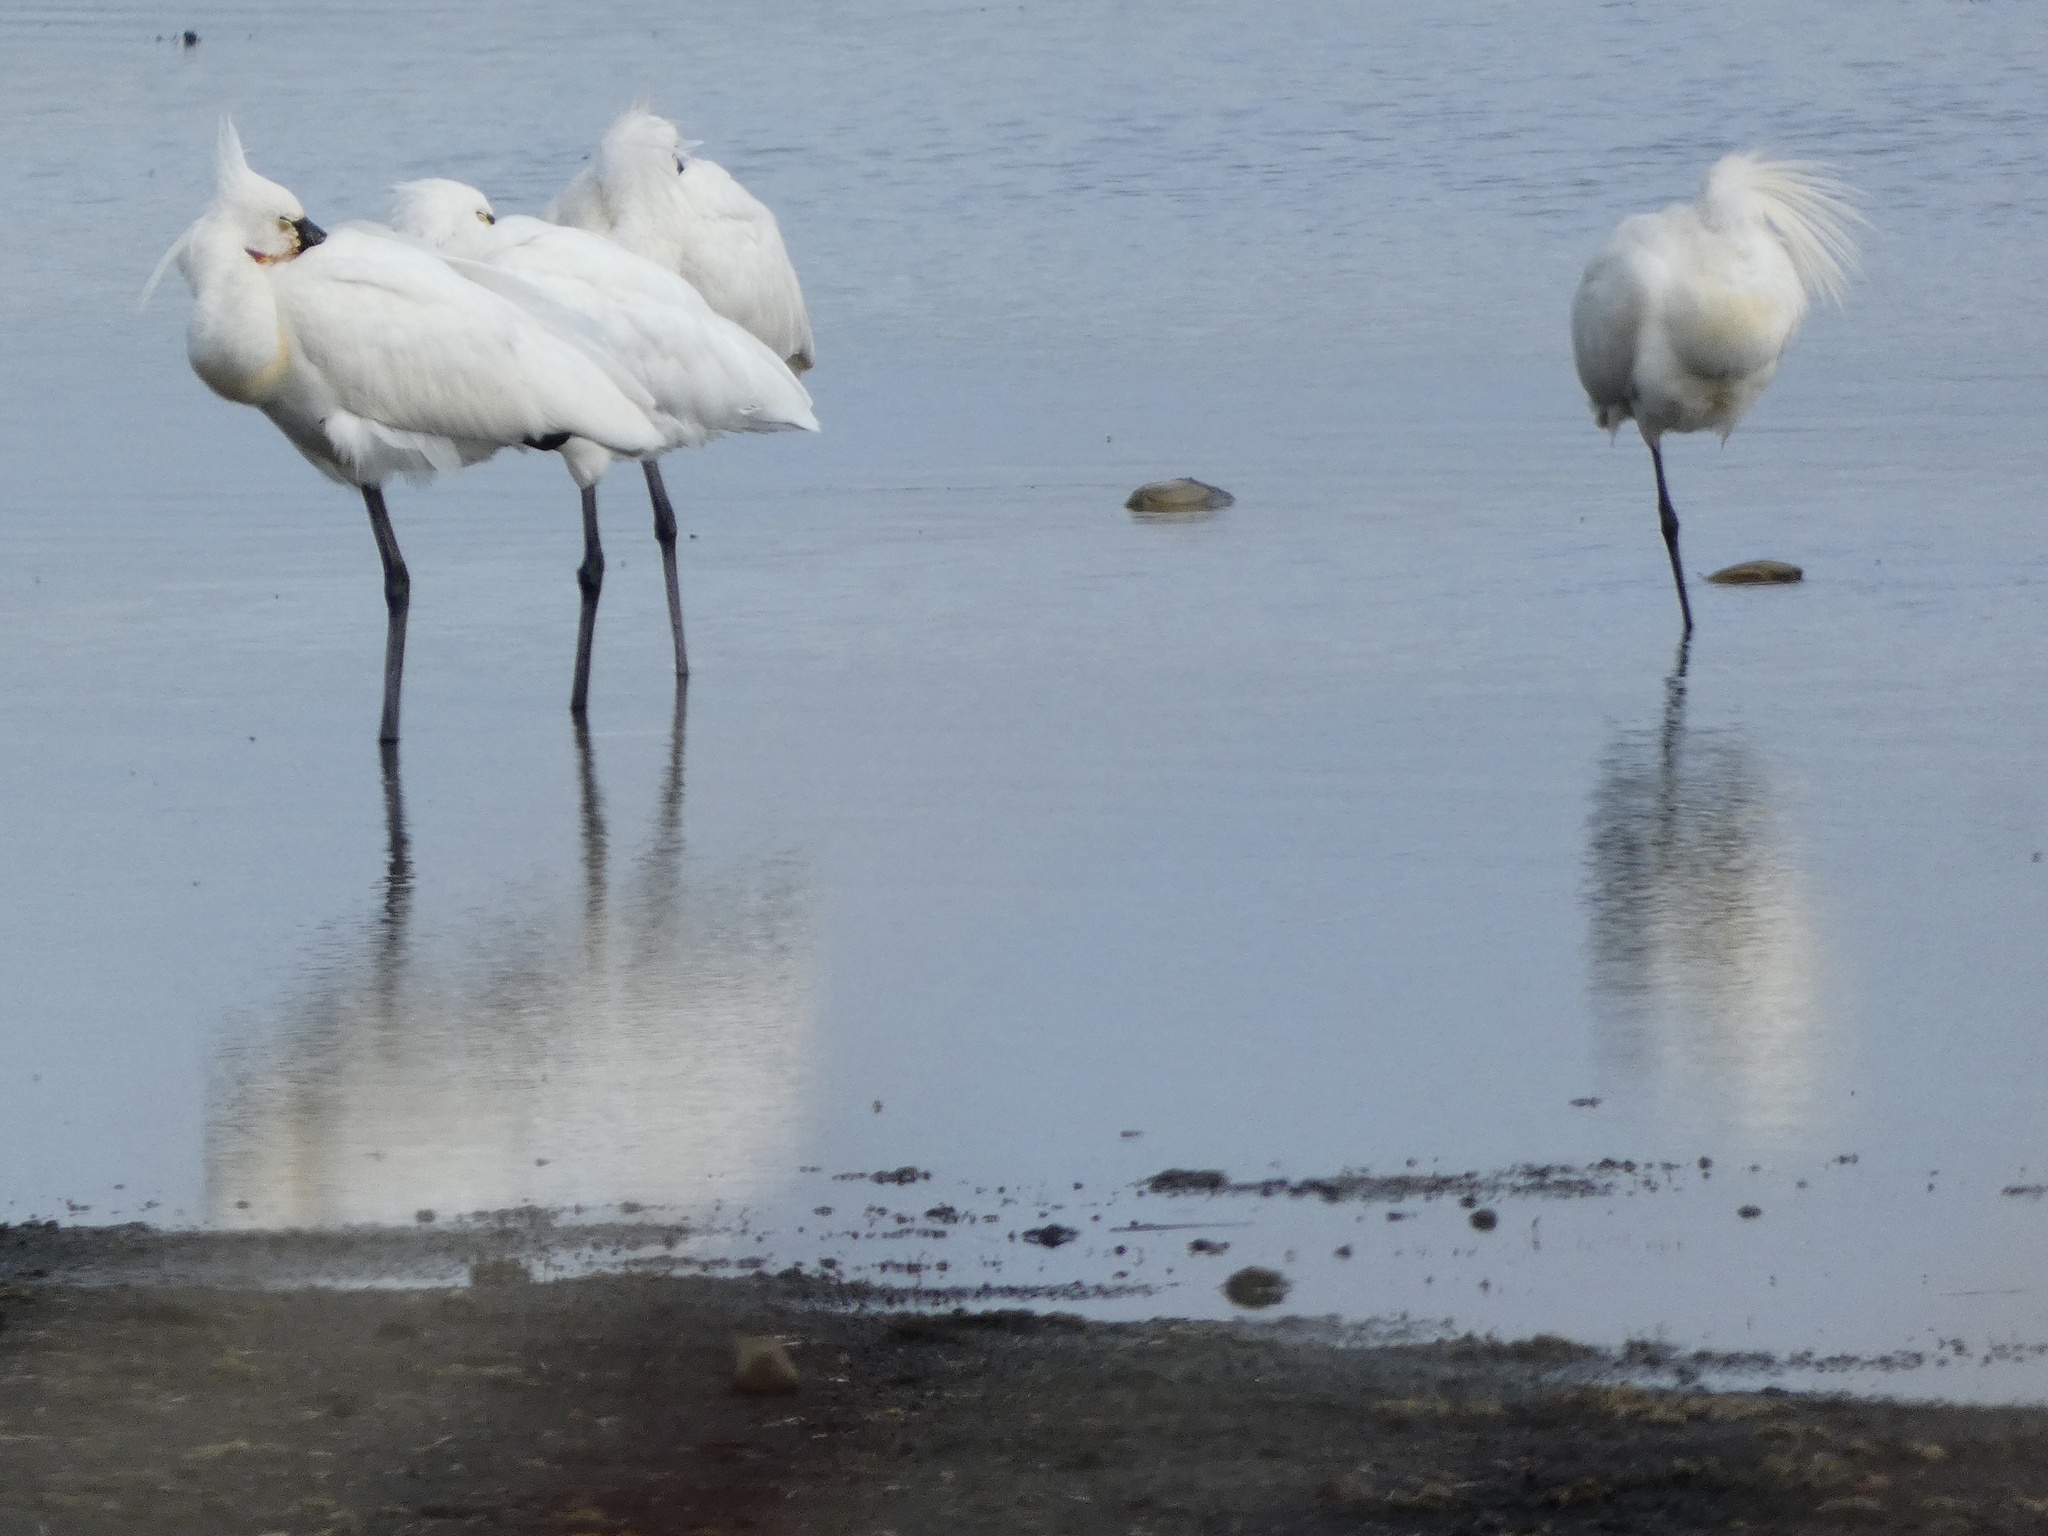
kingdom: Animalia
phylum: Chordata
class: Aves
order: Pelecaniformes
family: Threskiornithidae
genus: Platalea
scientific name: Platalea leucorodia
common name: Eurasian spoonbill
